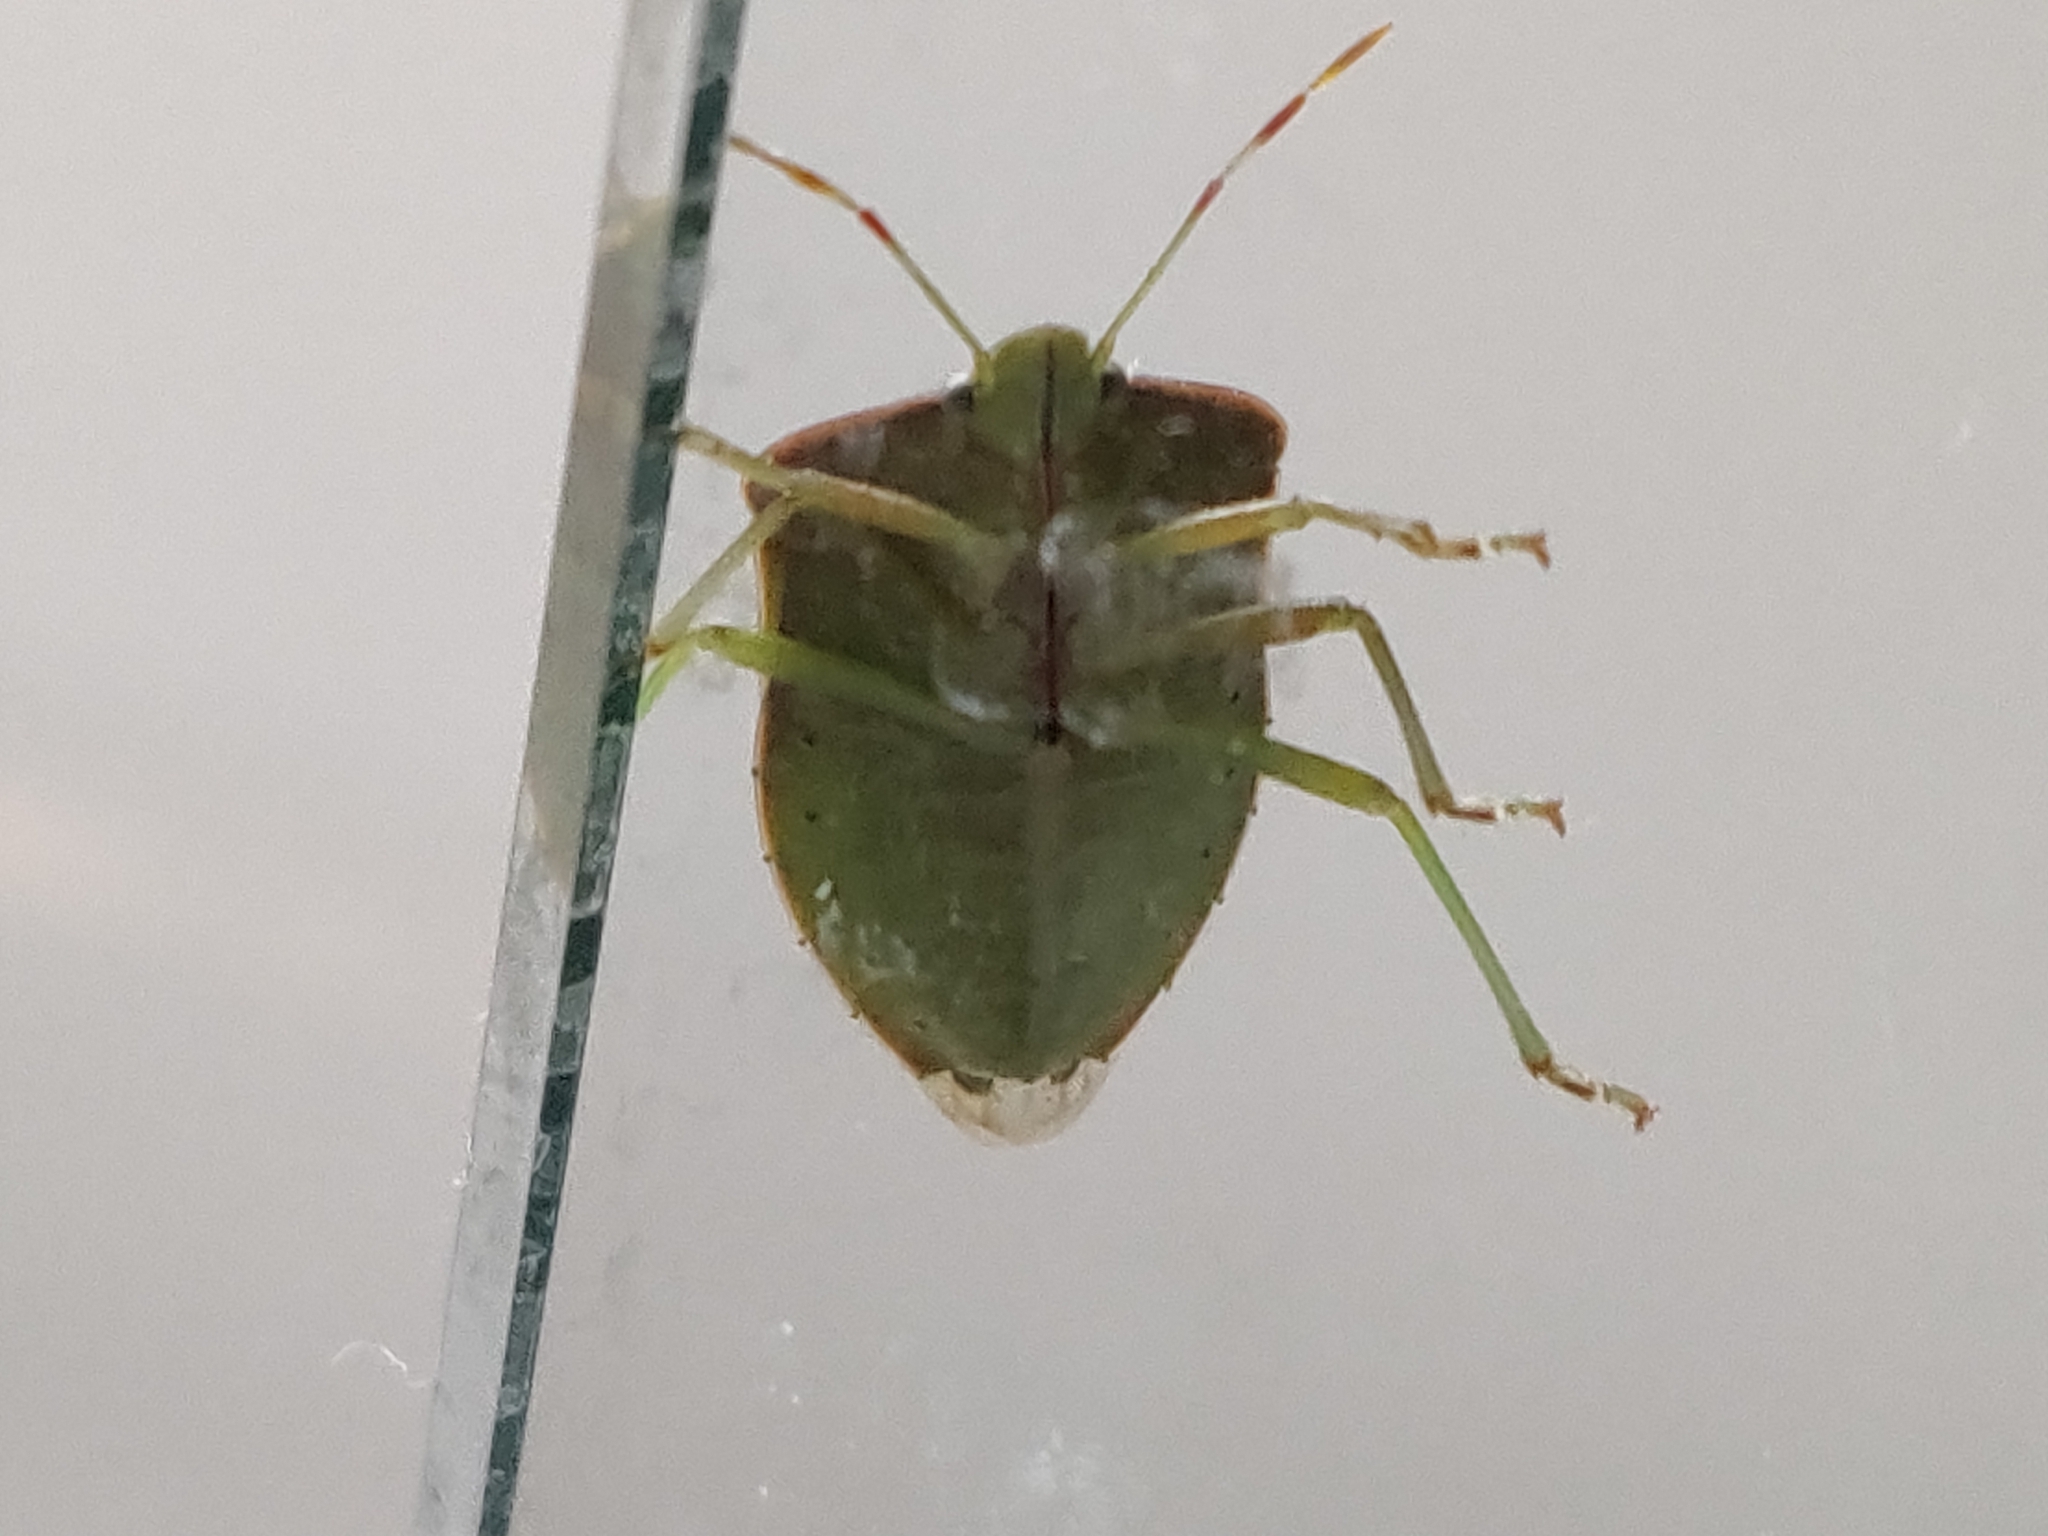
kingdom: Animalia
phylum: Arthropoda
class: Insecta
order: Hemiptera
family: Pentatomidae
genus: Nezara
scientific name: Nezara viridula
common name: Southern green stink bug
